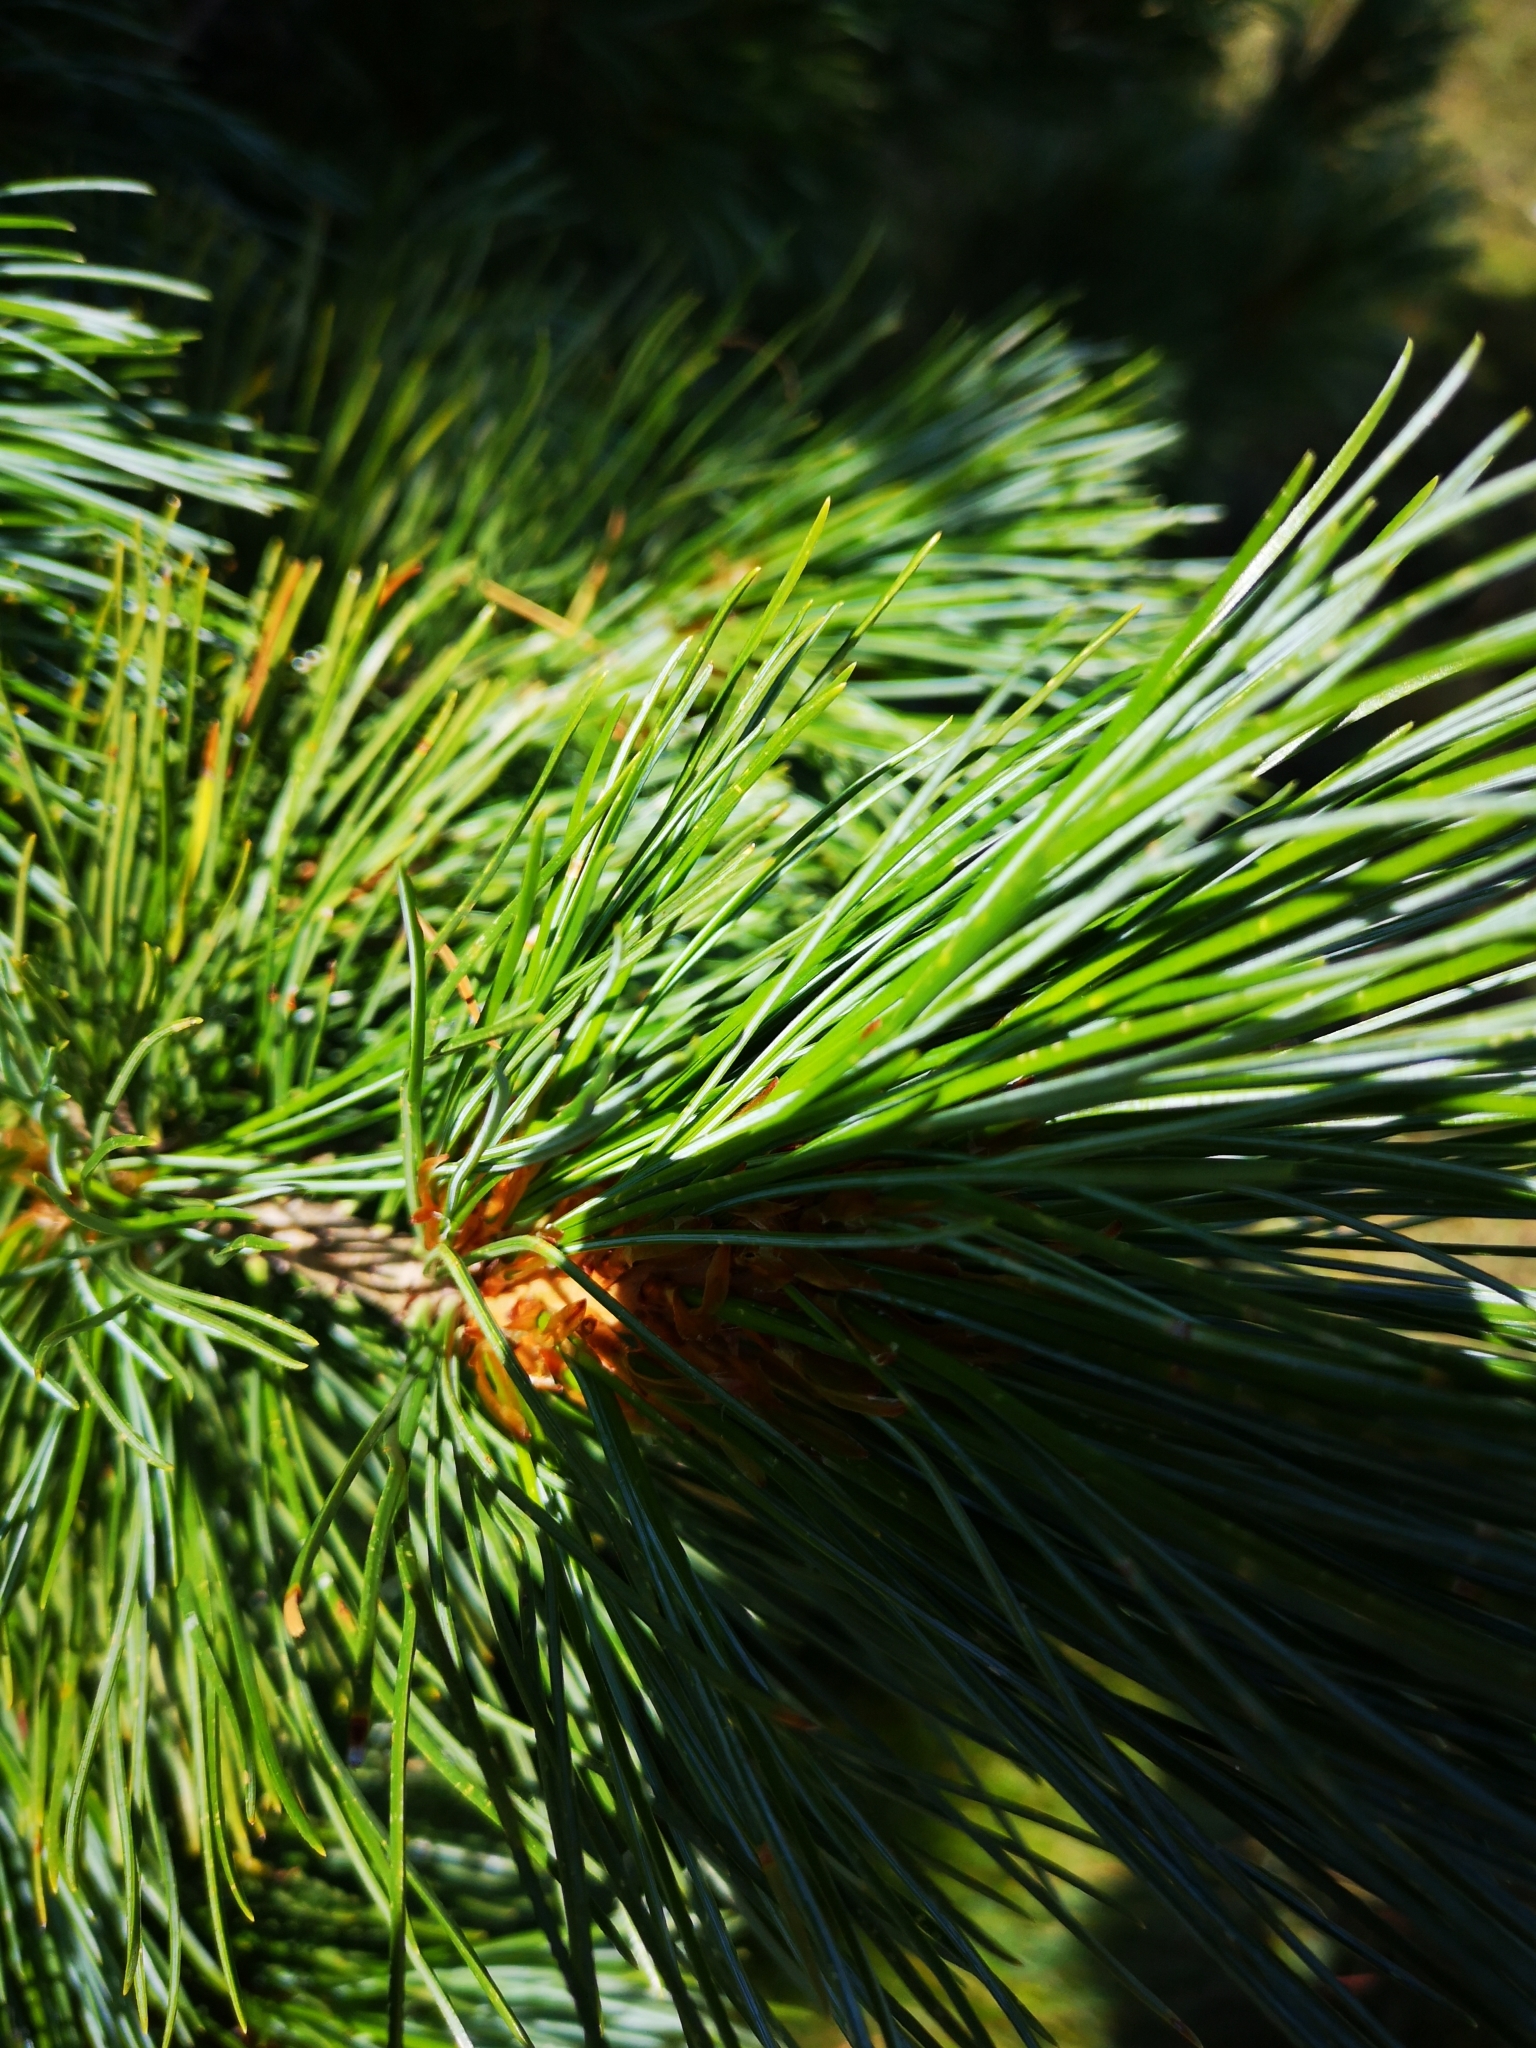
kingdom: Plantae
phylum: Tracheophyta
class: Pinopsida
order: Pinales
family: Pinaceae
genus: Pinus
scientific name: Pinus cembra
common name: Arolla pine
